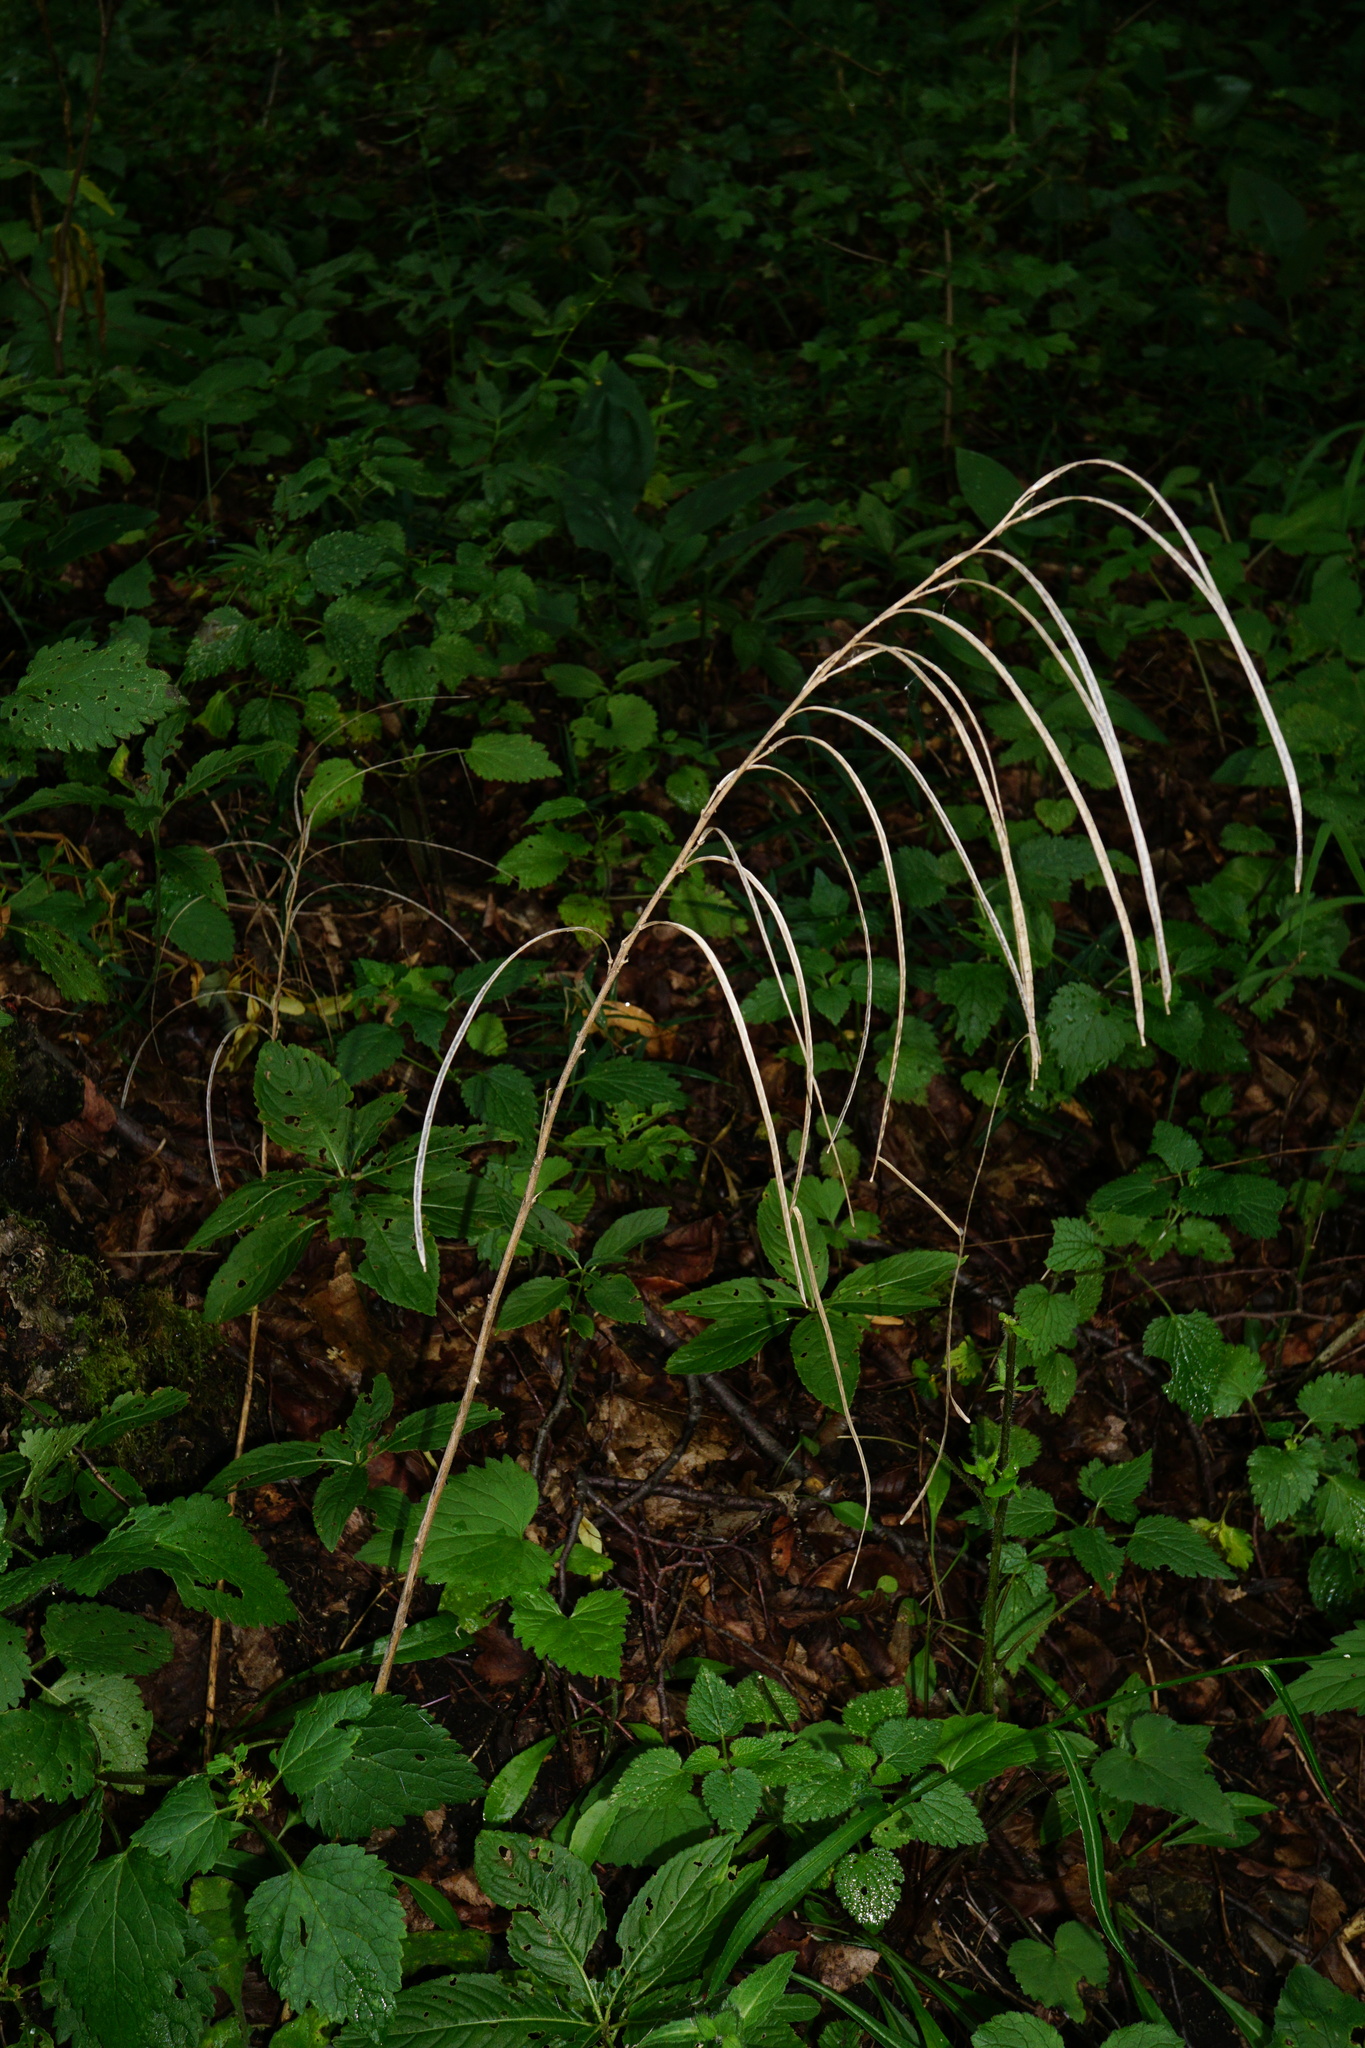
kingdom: Plantae
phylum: Tracheophyta
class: Magnoliopsida
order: Brassicales
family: Brassicaceae
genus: Pseudoturritis
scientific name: Pseudoturritis turrita
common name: Tower cress
